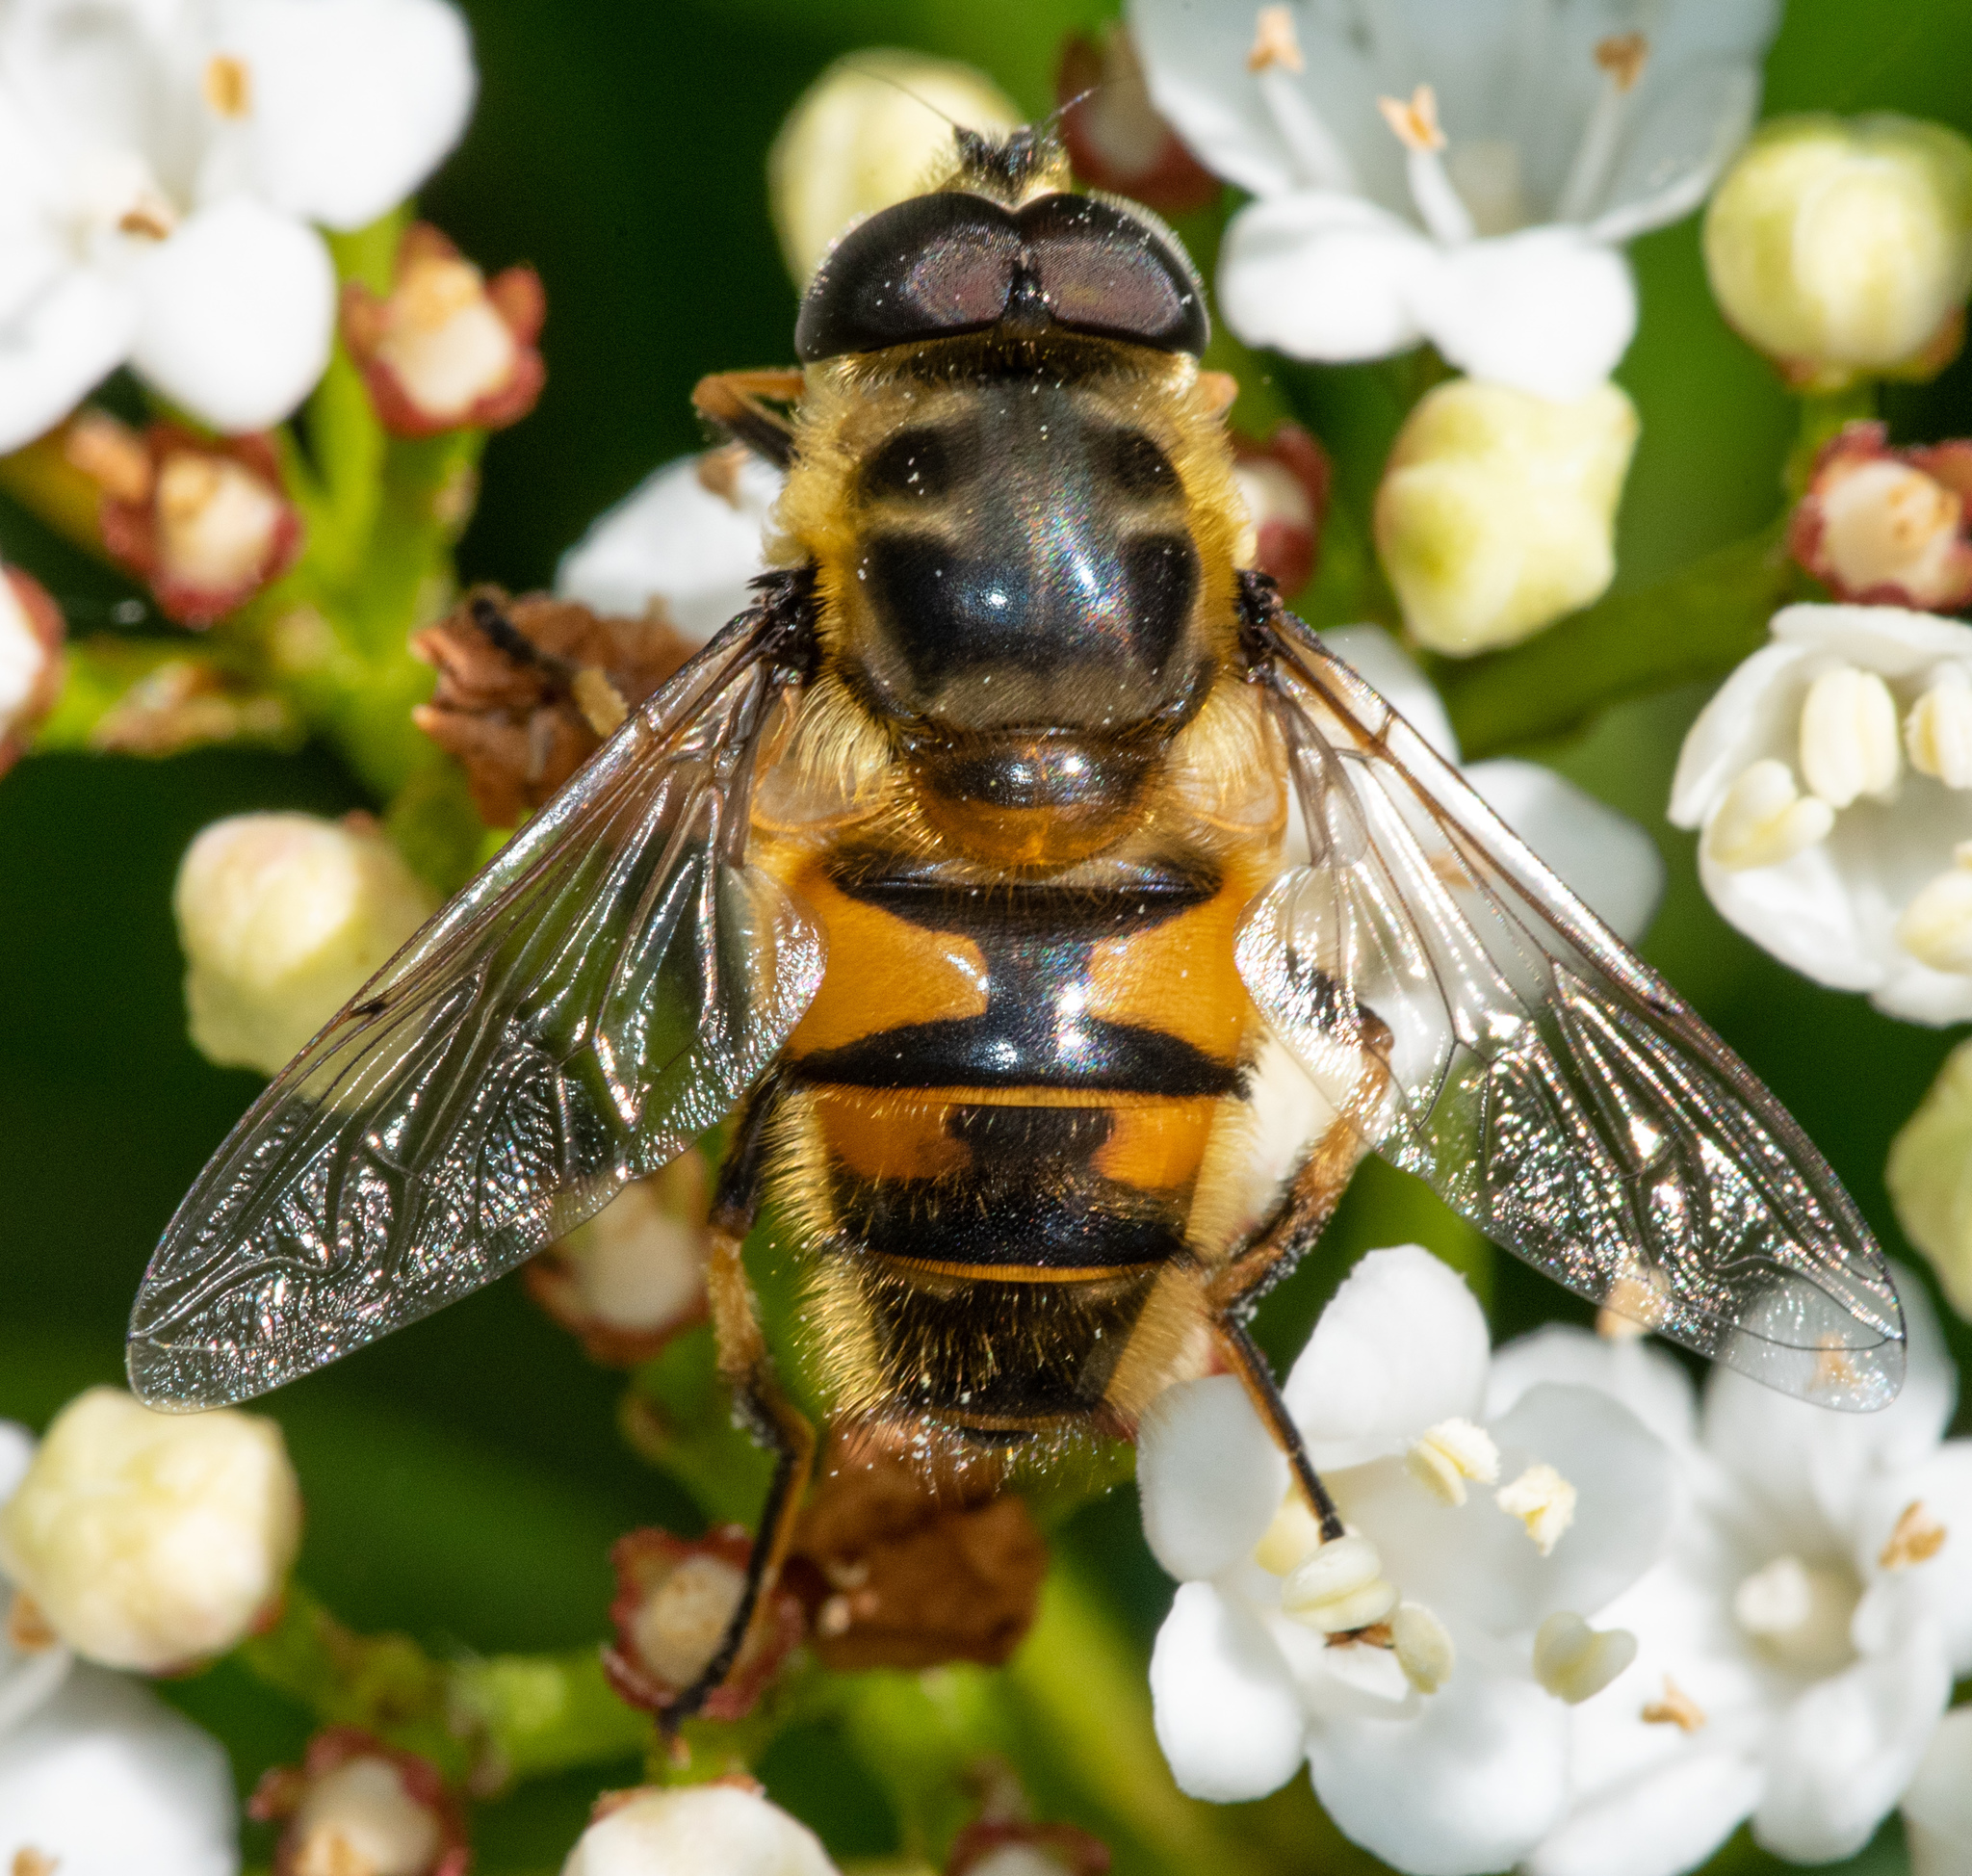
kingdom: Animalia
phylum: Arthropoda
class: Insecta
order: Diptera
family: Syrphidae
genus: Myathropa
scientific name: Myathropa florea
